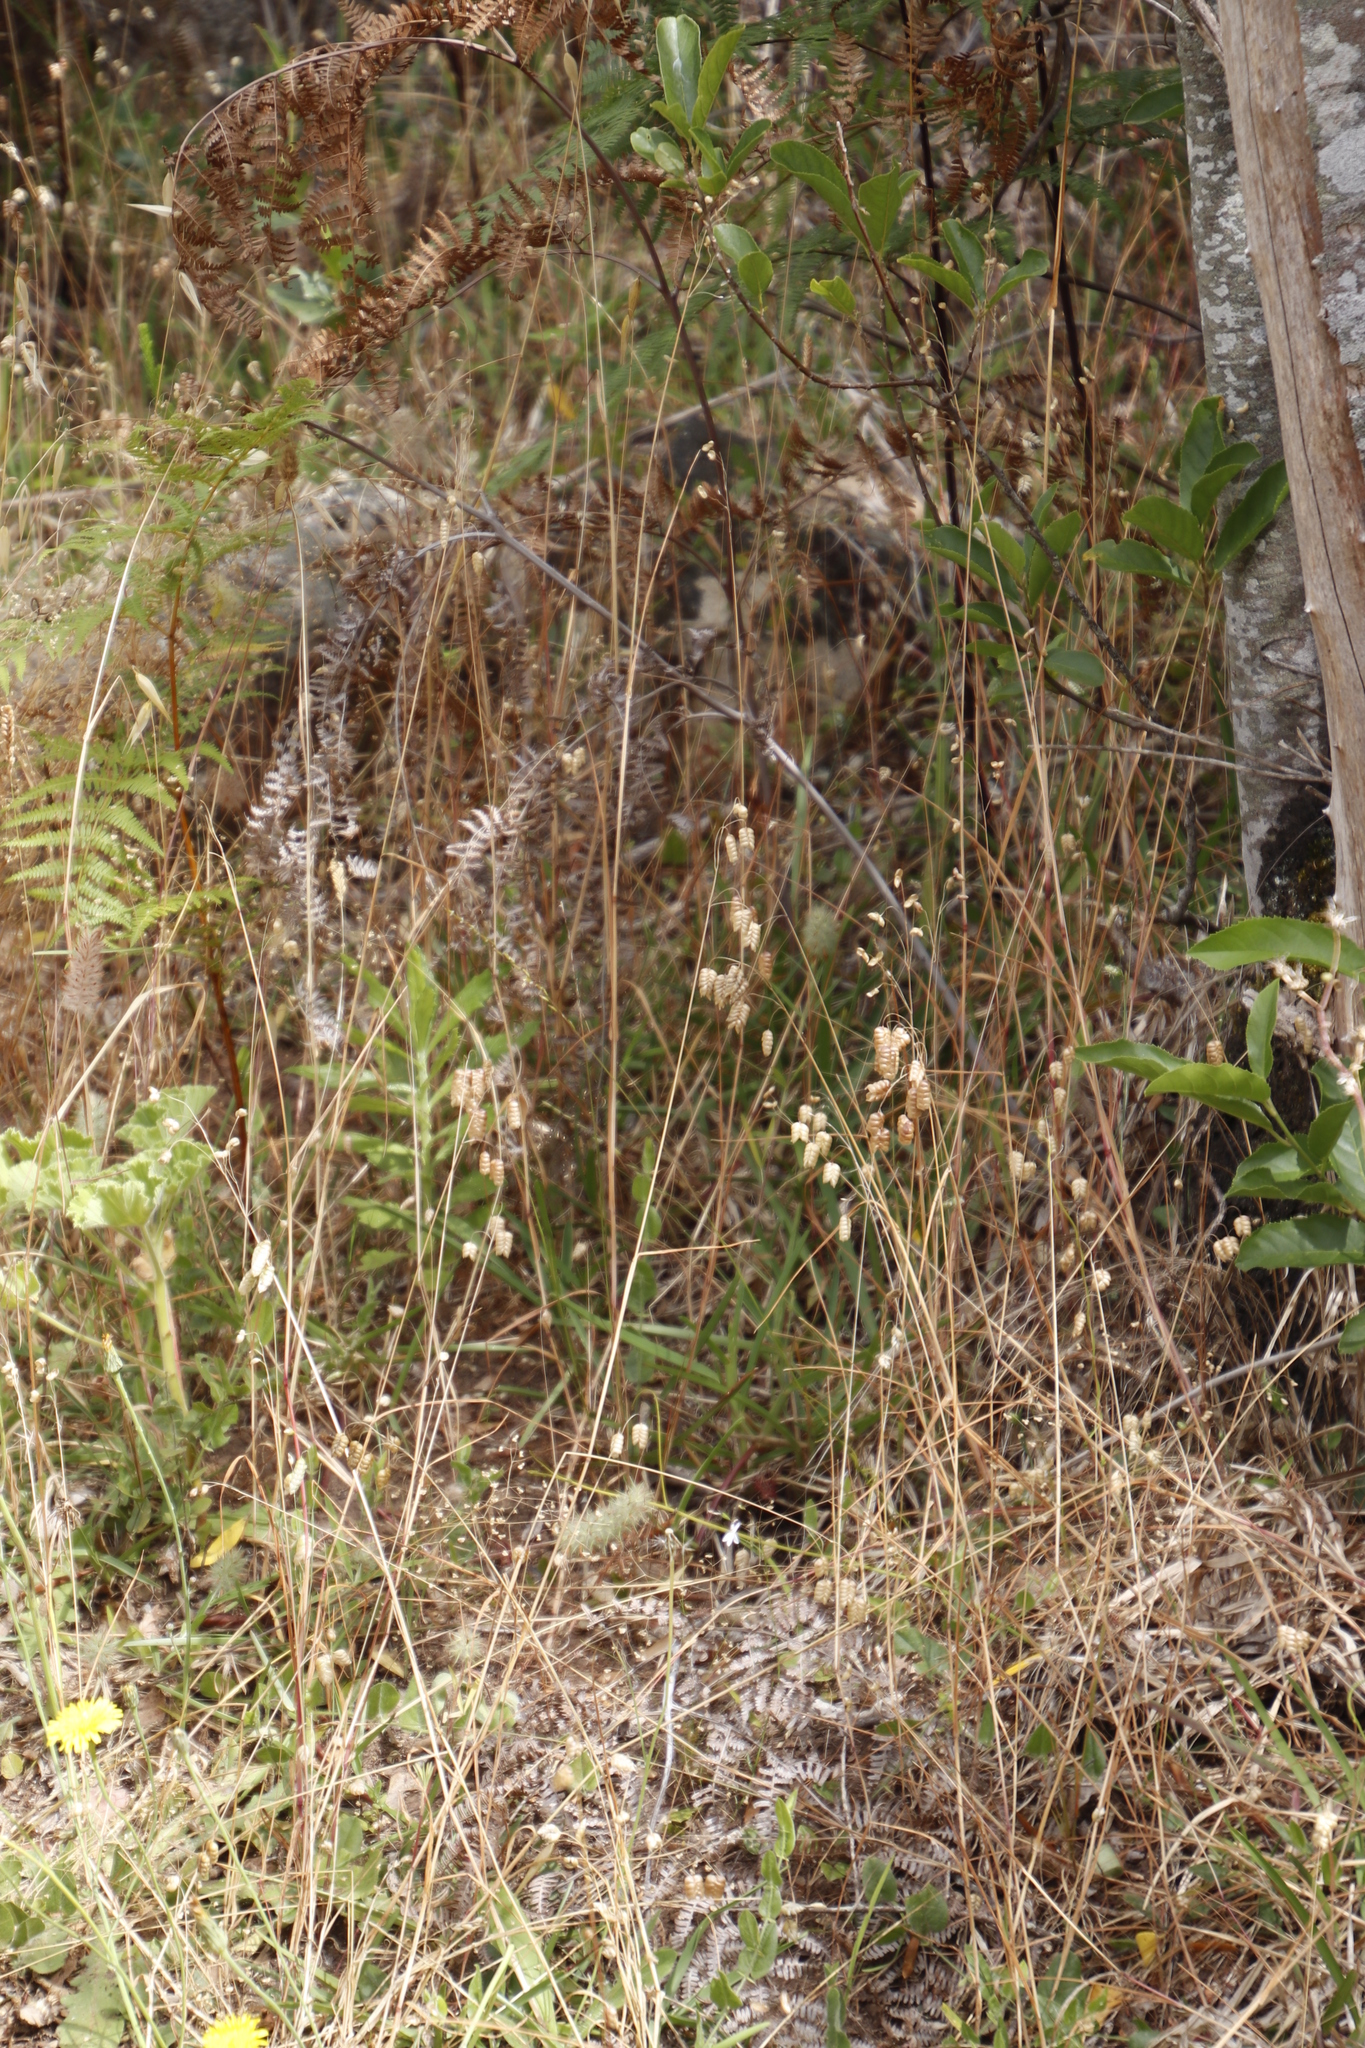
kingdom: Plantae
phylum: Tracheophyta
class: Liliopsida
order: Poales
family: Poaceae
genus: Briza
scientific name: Briza maxima
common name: Big quakinggrass
